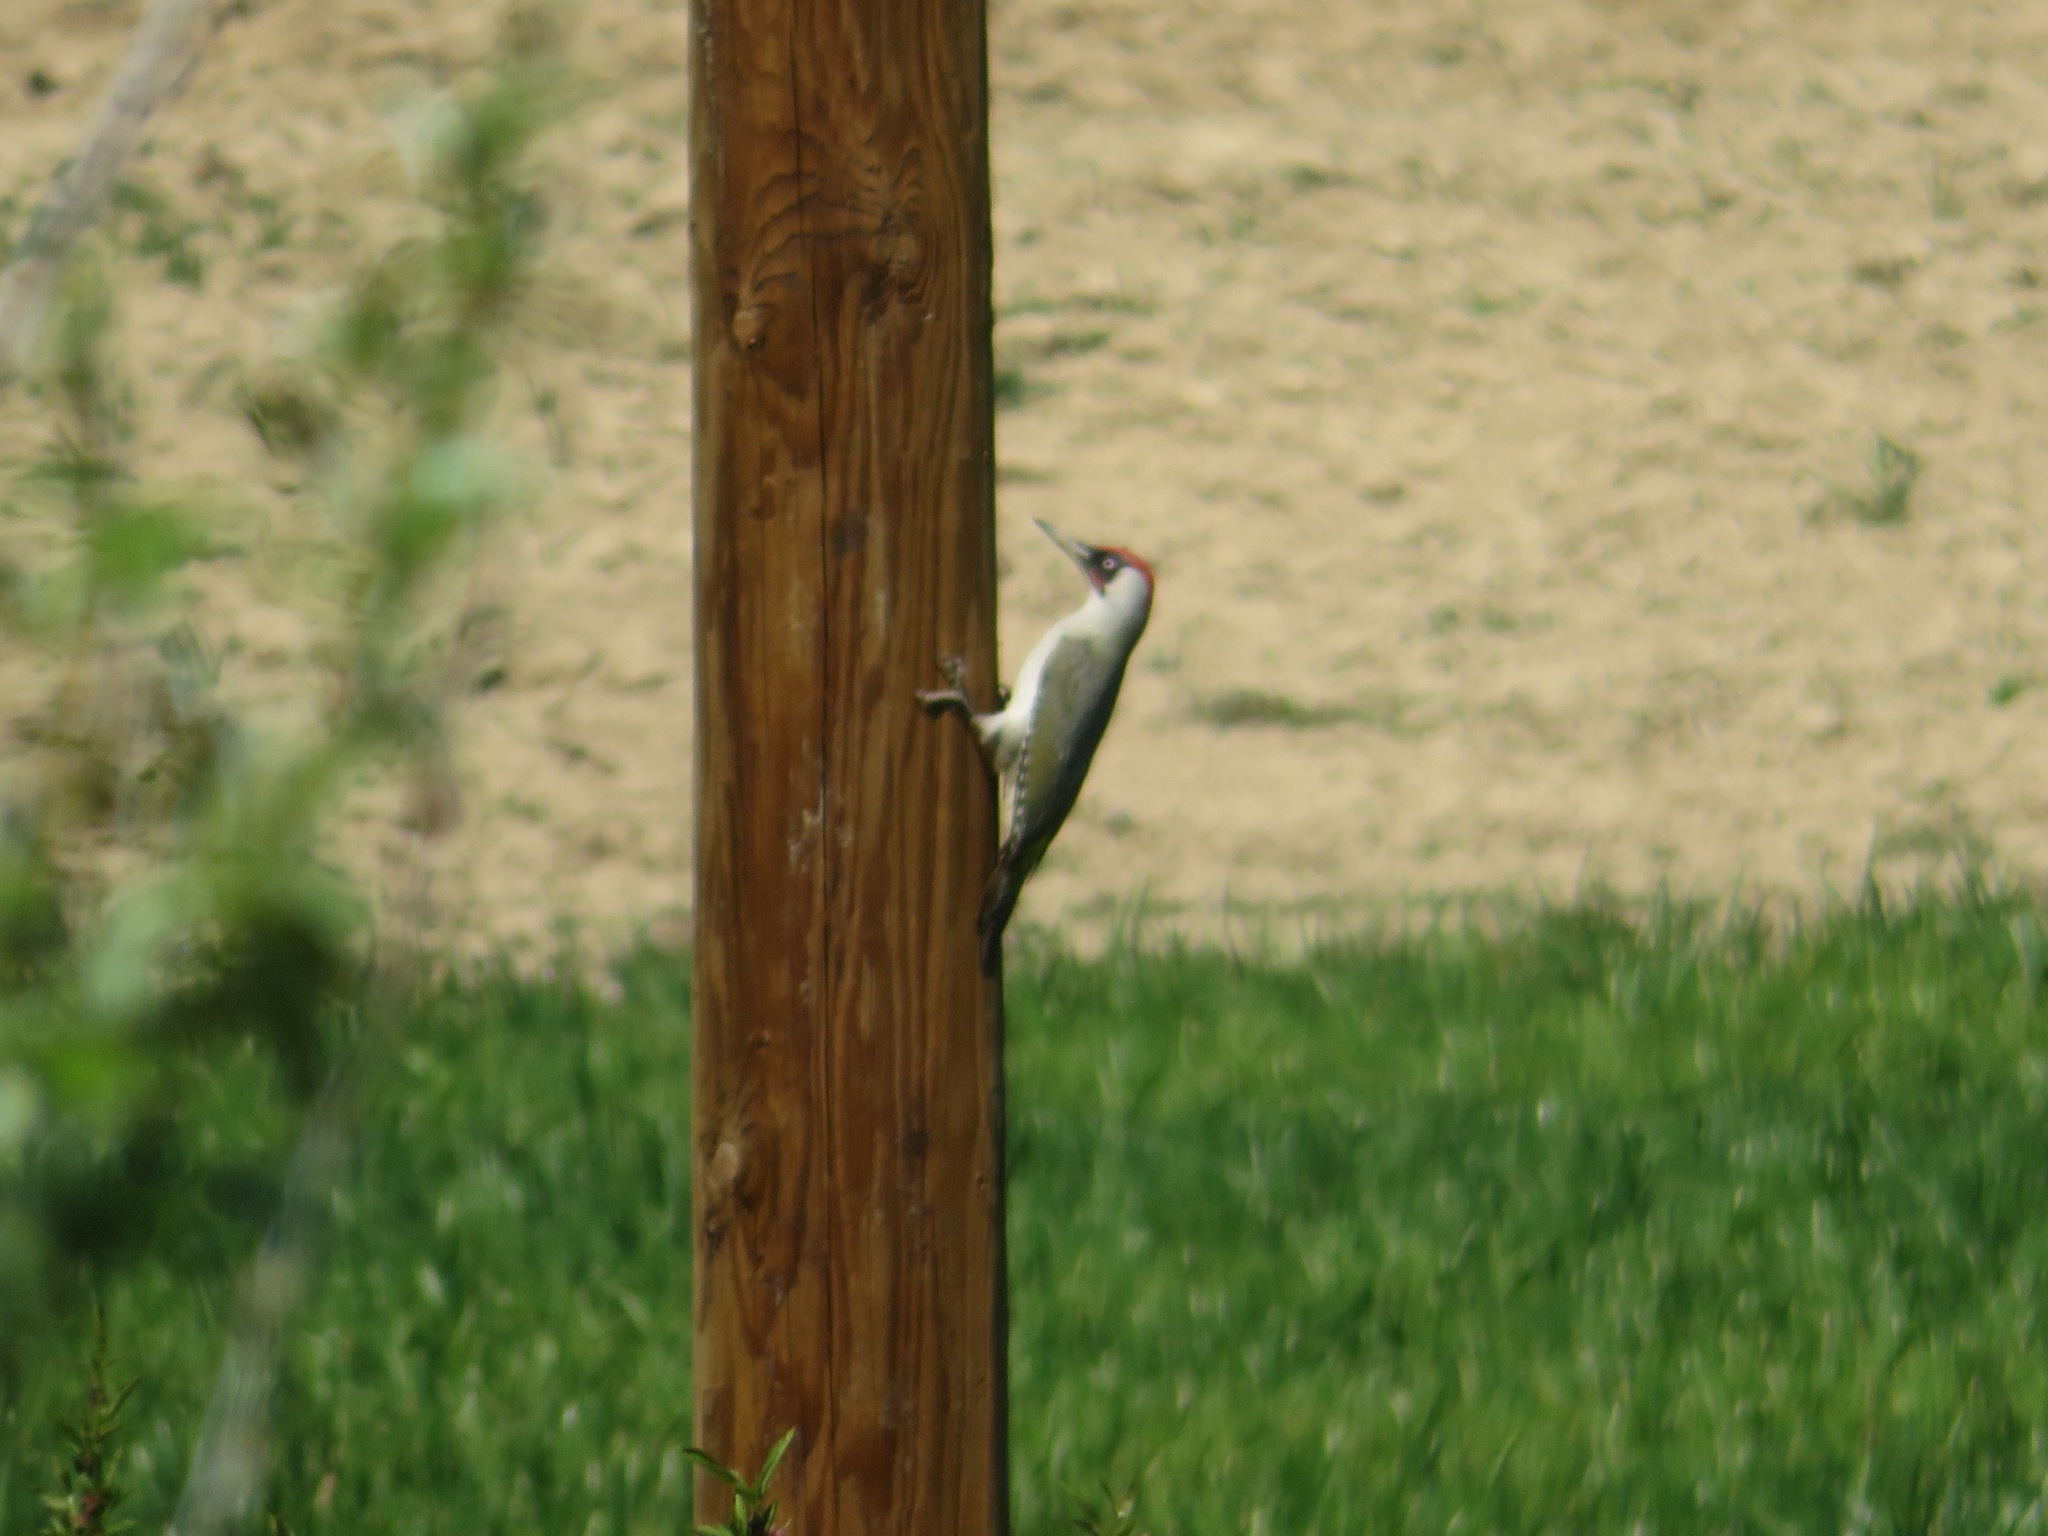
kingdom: Animalia
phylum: Chordata
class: Aves
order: Piciformes
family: Picidae
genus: Picus
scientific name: Picus viridis
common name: European green woodpecker
